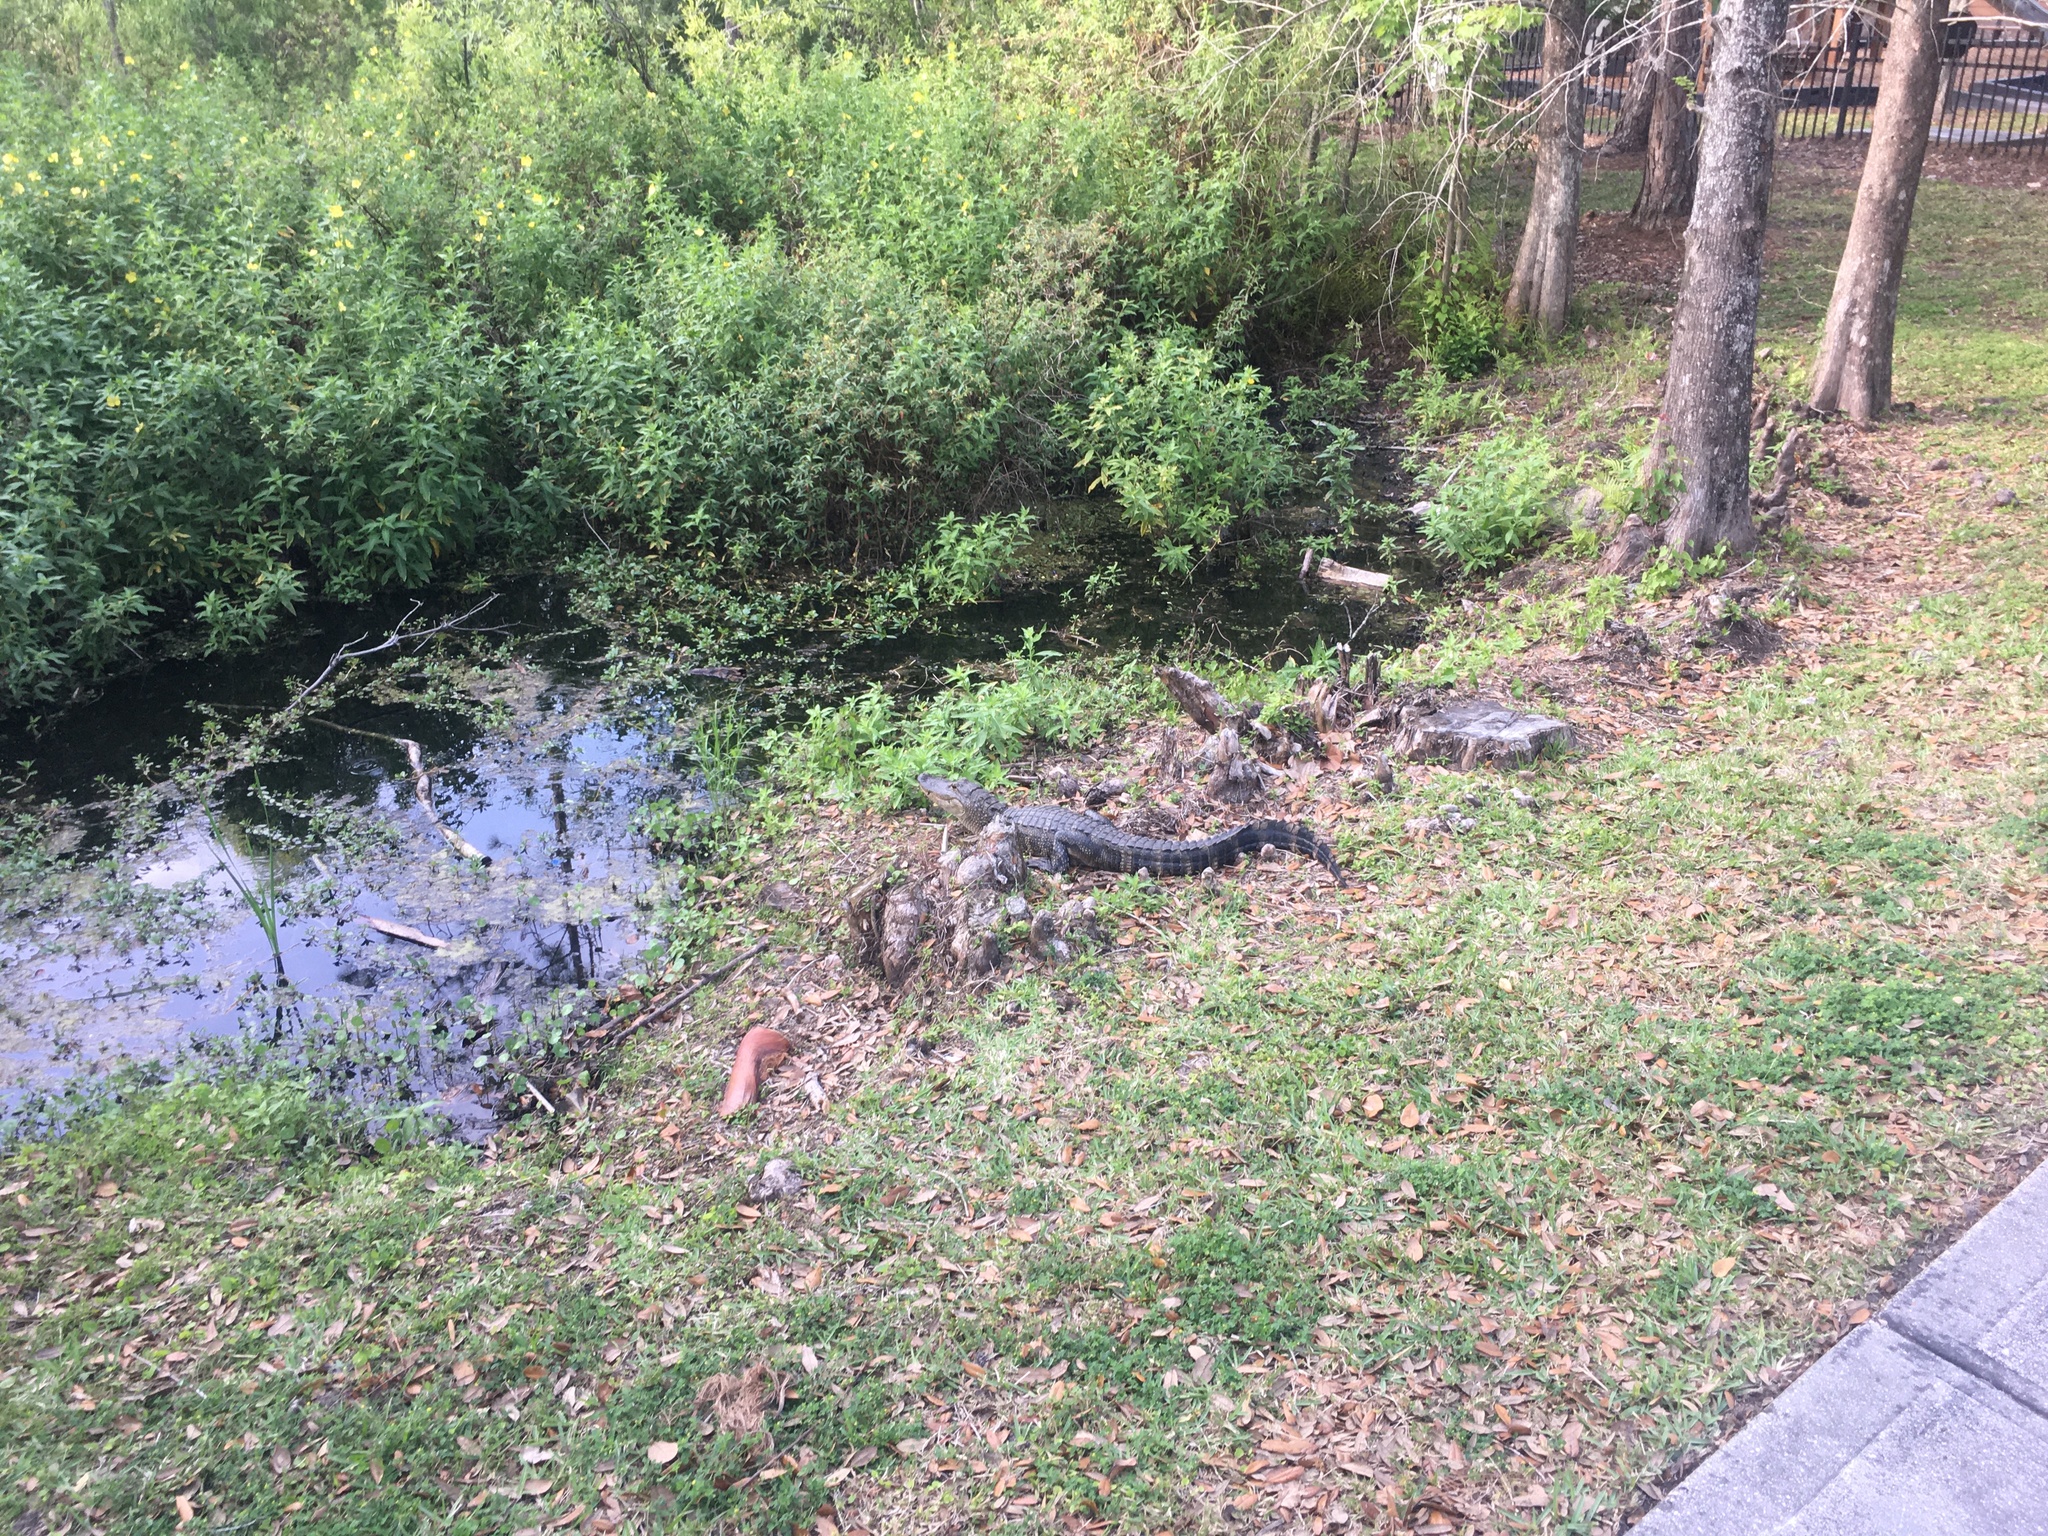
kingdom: Animalia
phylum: Chordata
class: Crocodylia
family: Alligatoridae
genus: Alligator
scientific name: Alligator mississippiensis
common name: American alligator
